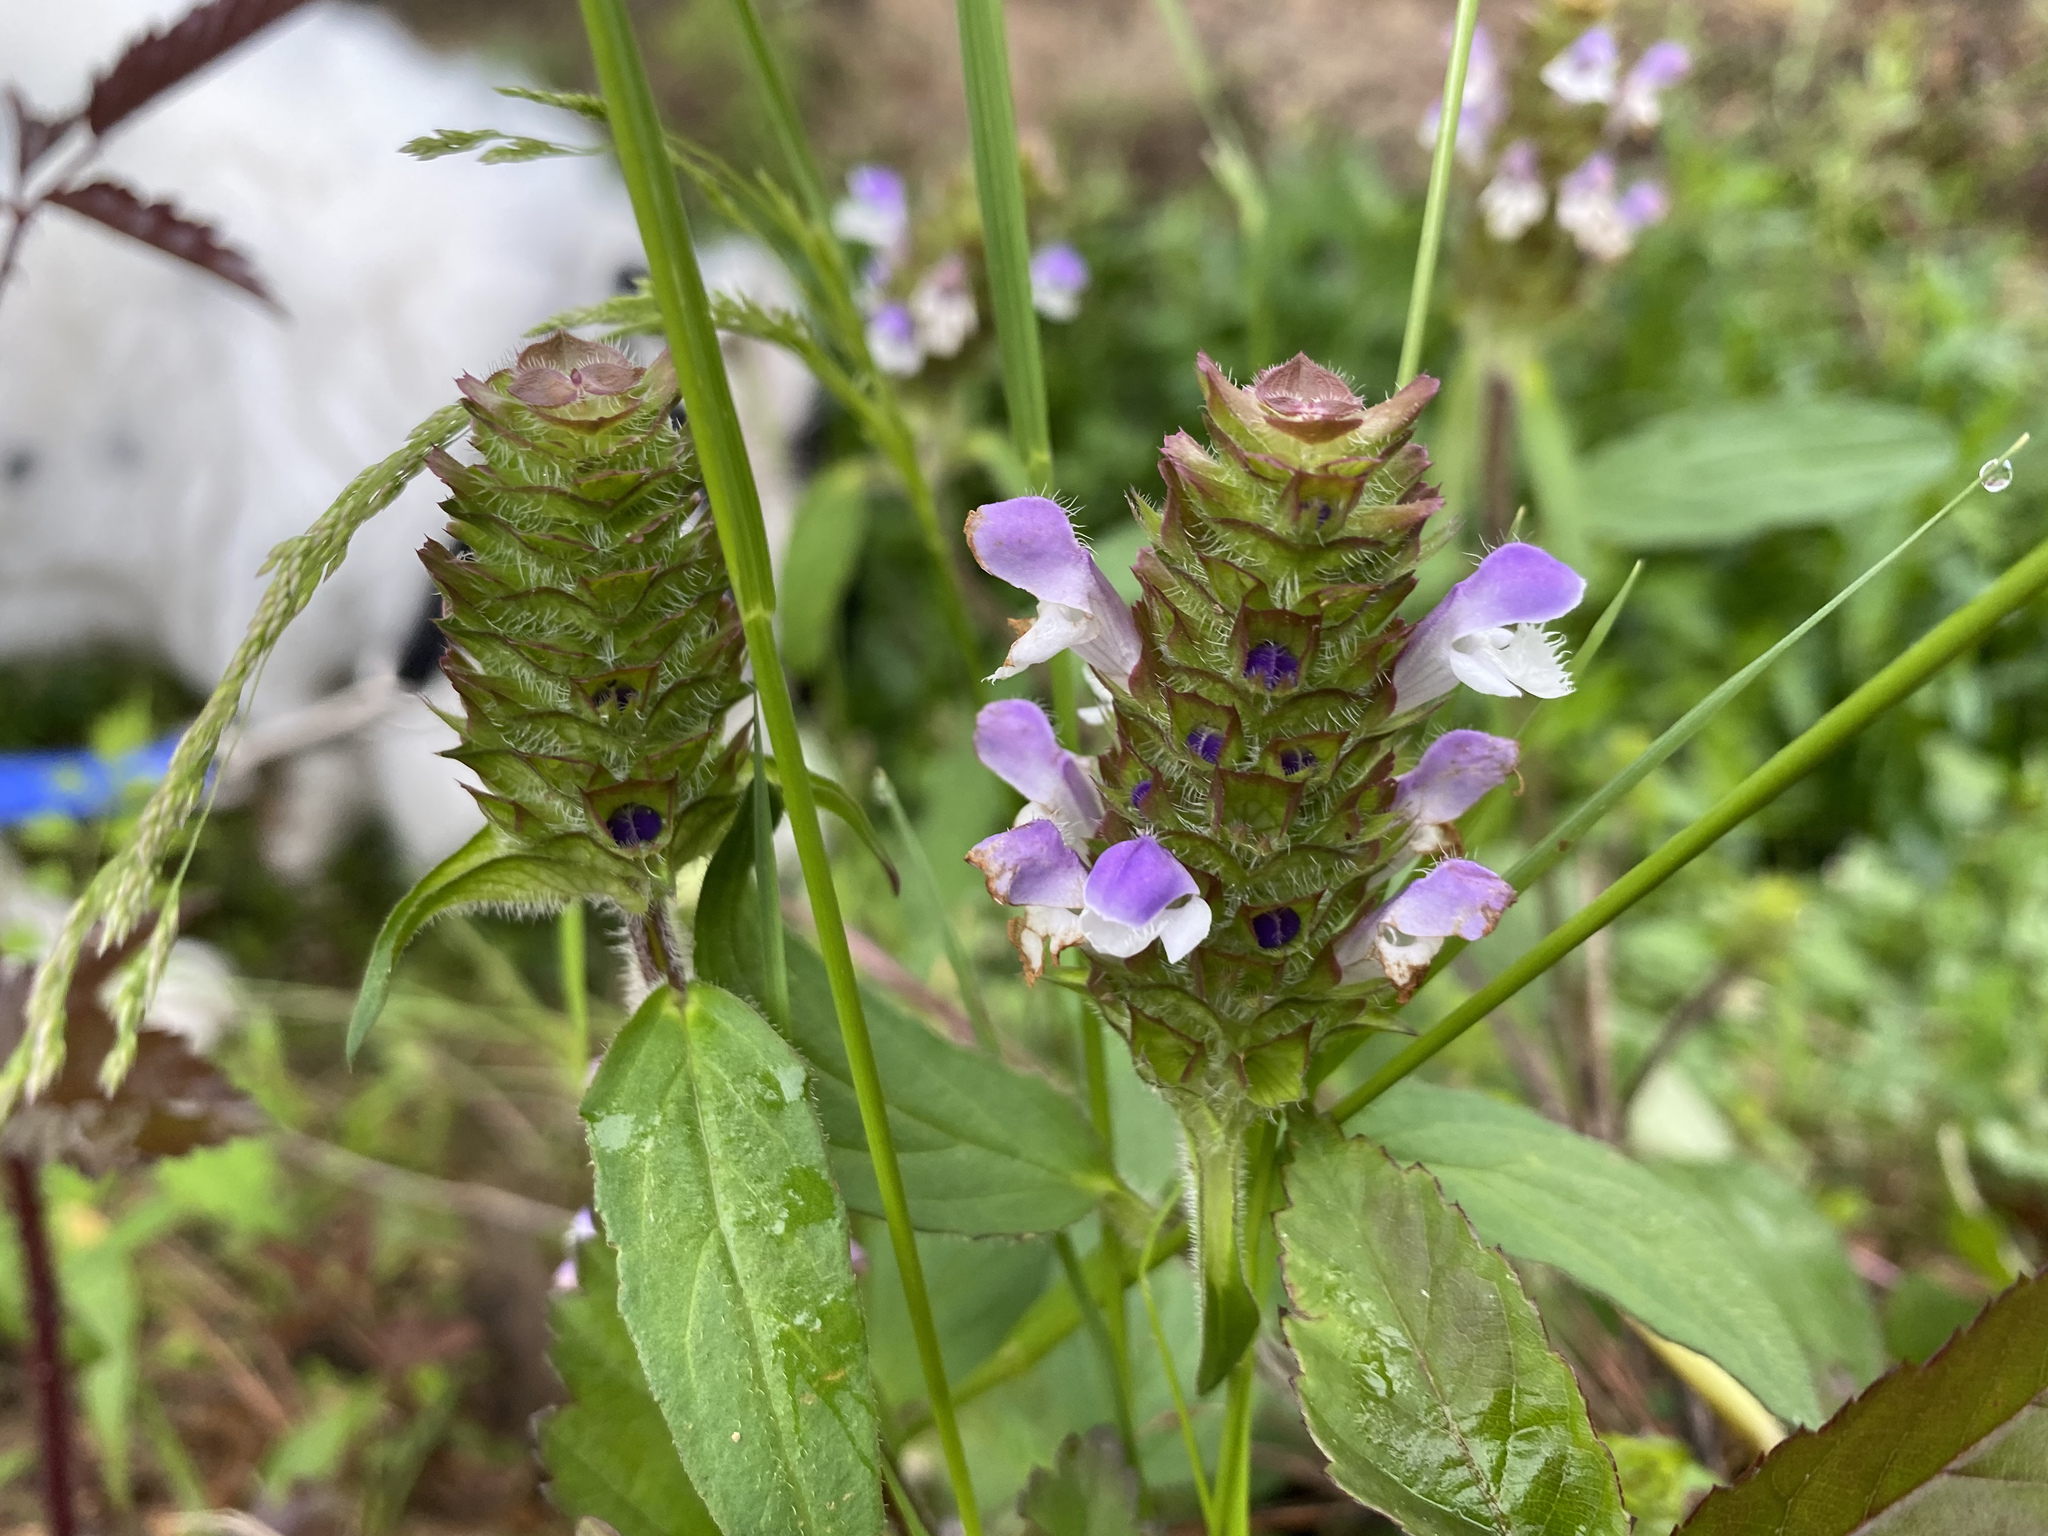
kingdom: Plantae
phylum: Tracheophyta
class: Magnoliopsida
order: Lamiales
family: Lamiaceae
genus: Prunella
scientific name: Prunella vulgaris
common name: Heal-all
